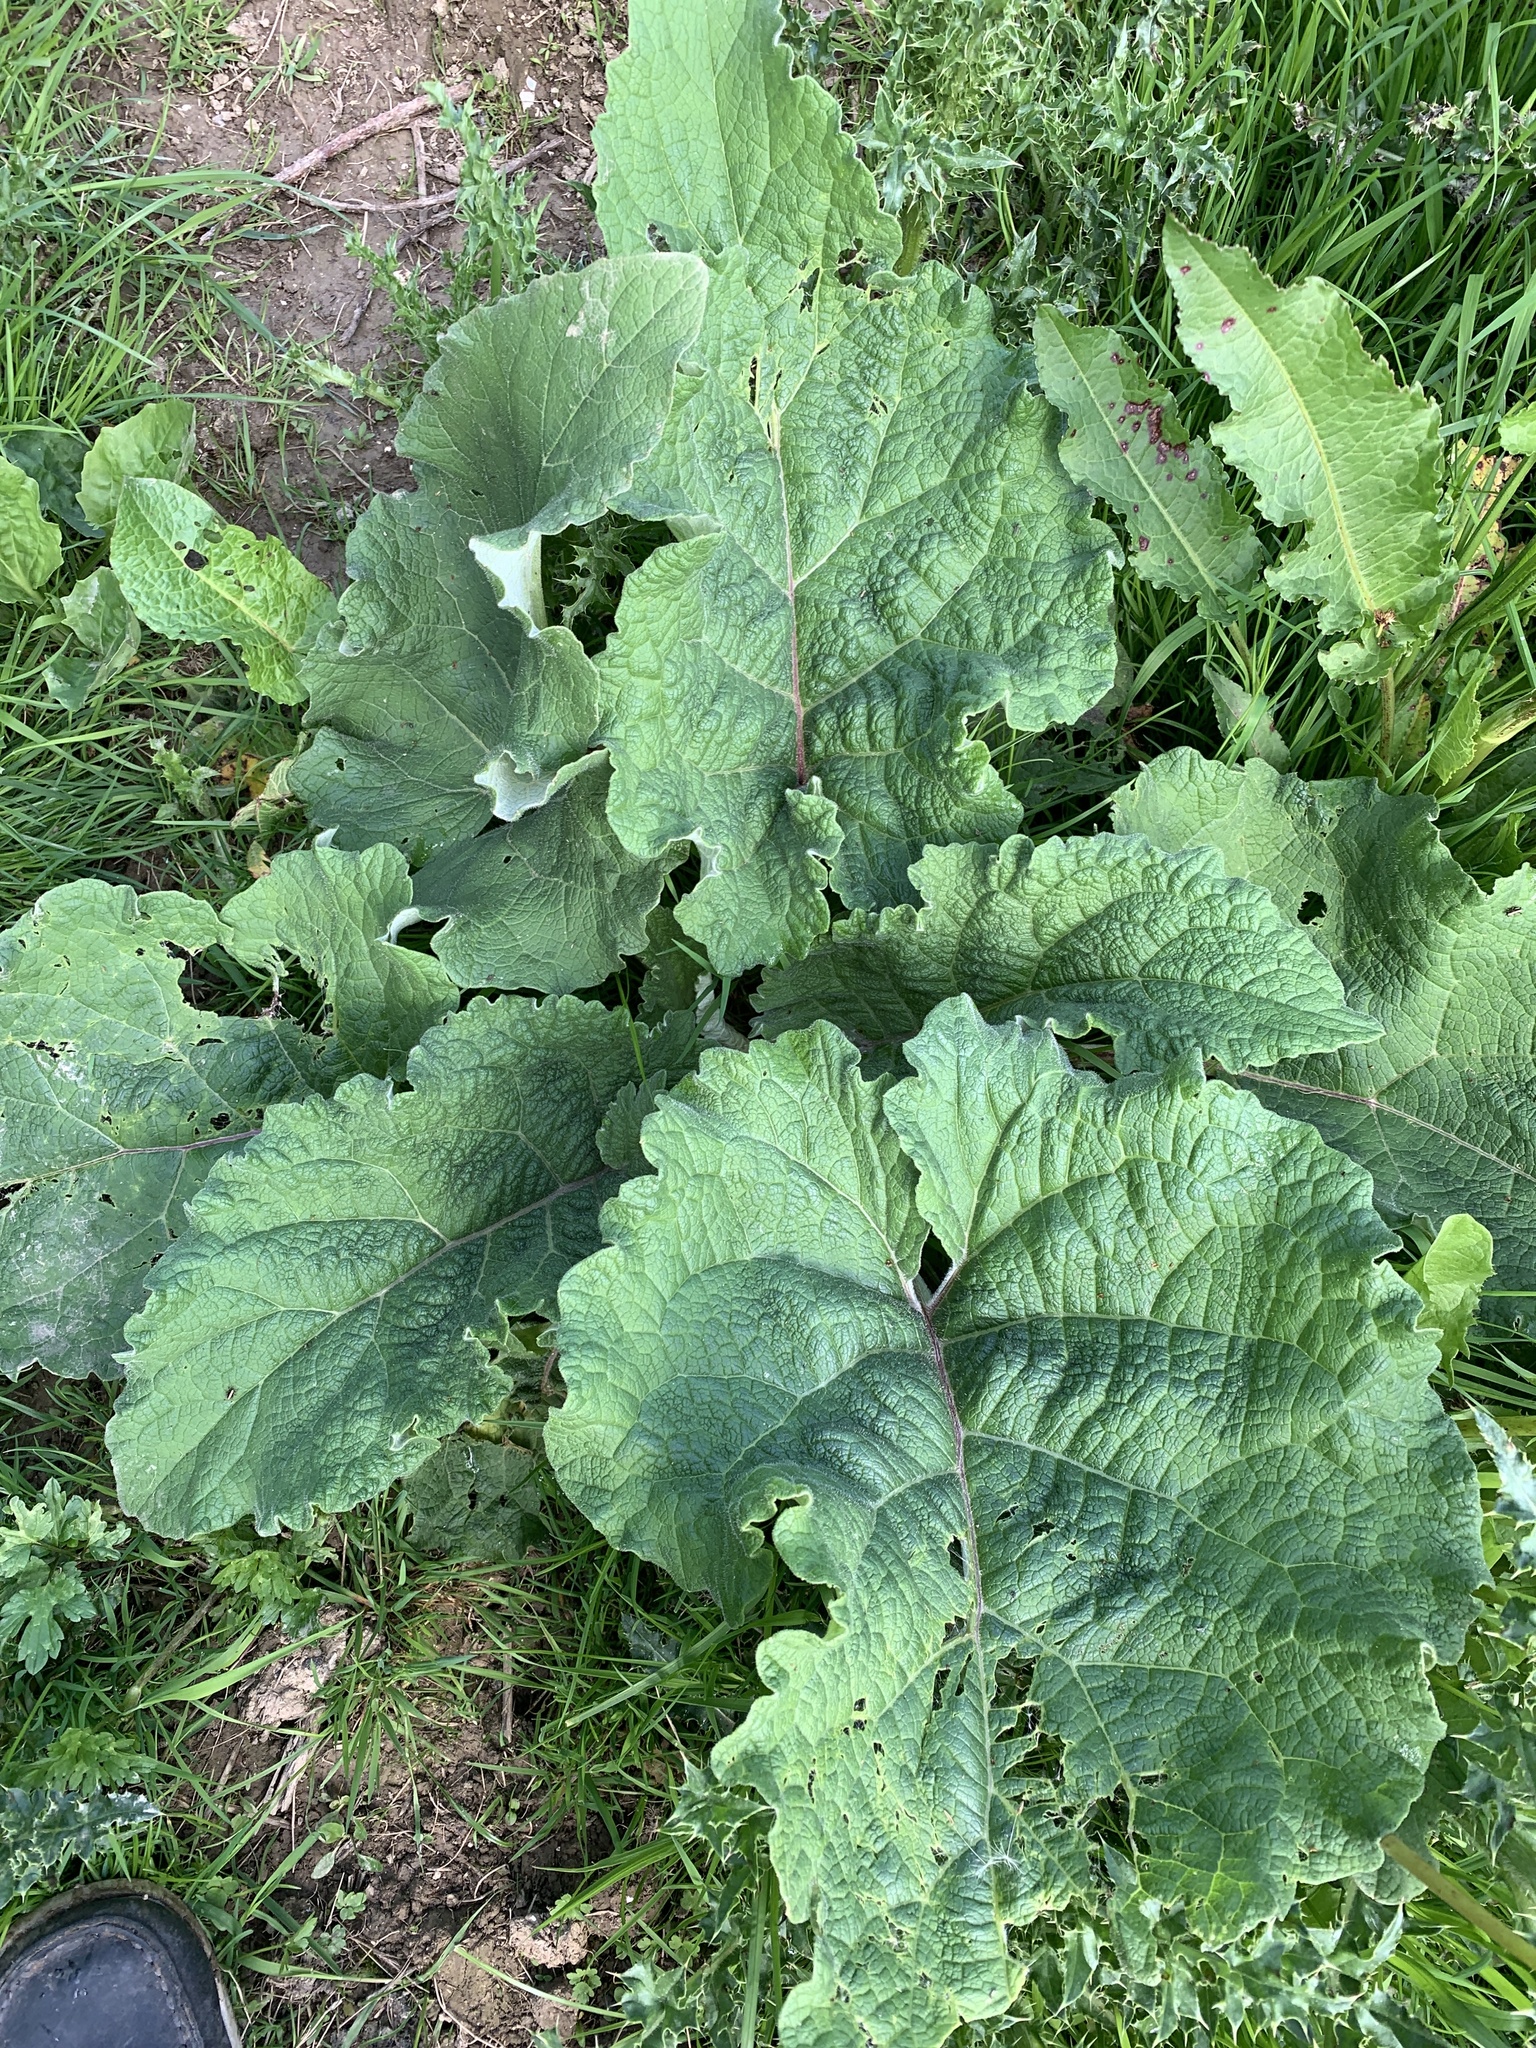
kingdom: Plantae
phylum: Tracheophyta
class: Magnoliopsida
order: Asterales
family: Asteraceae
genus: Arctium
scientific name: Arctium lappa
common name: Greater burdock
